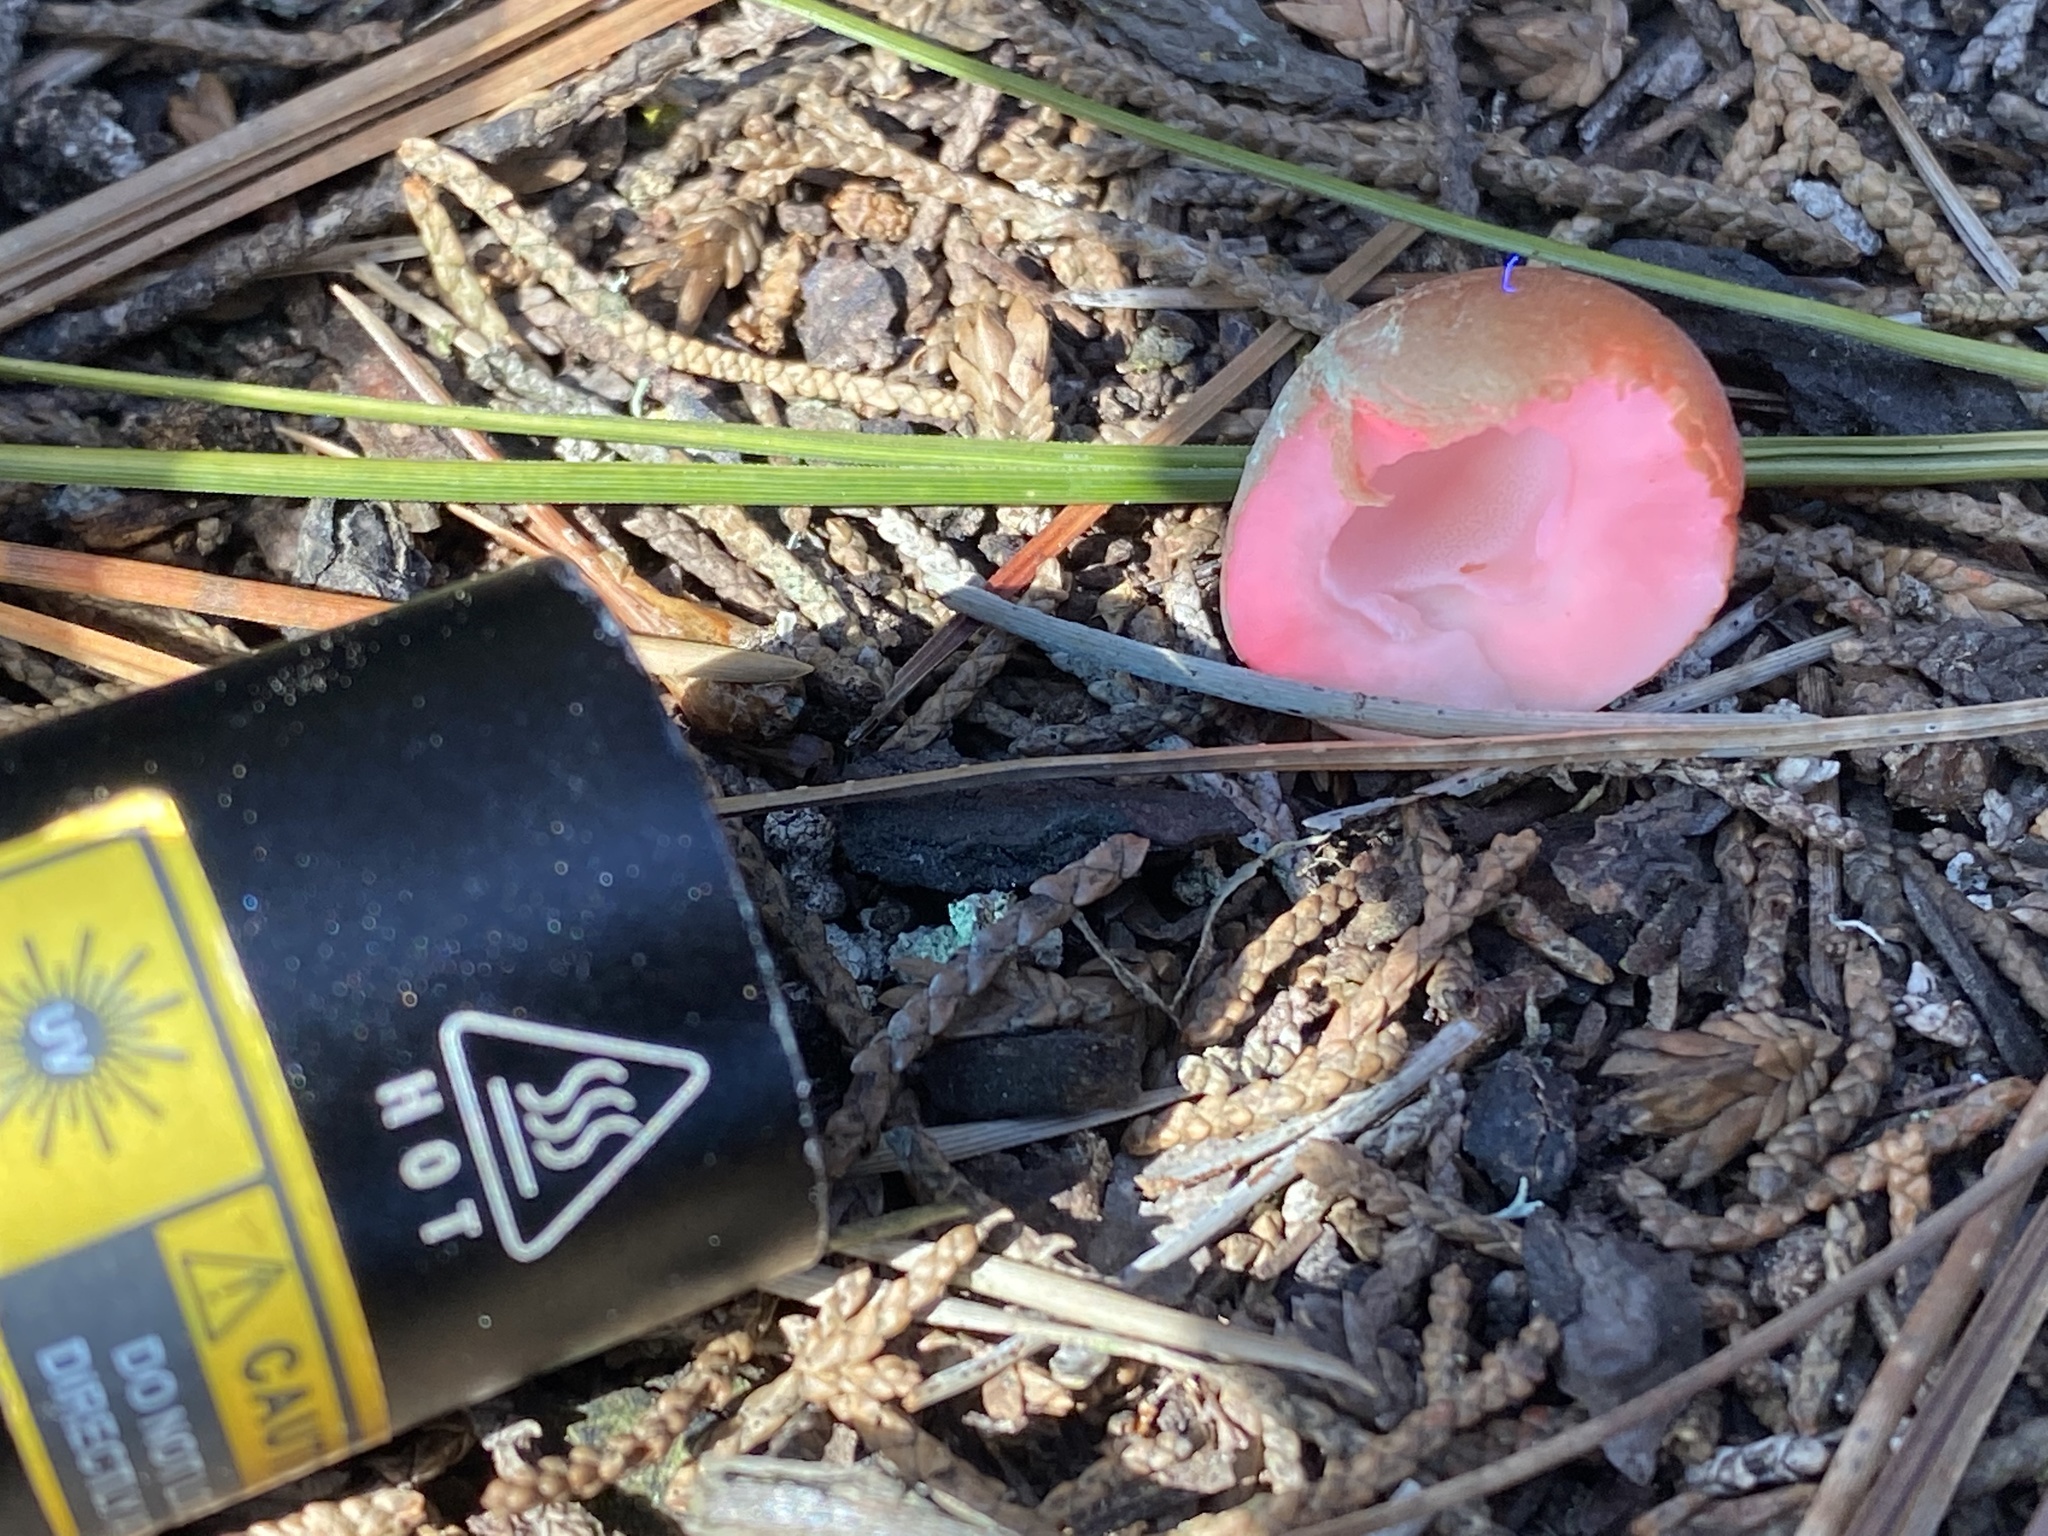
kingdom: Fungi
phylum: Basidiomycota
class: Agaricomycetes
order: Polyporales
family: Polyporaceae
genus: Cryptoporus
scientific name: Cryptoporus volvatus
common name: Veiled polypore
